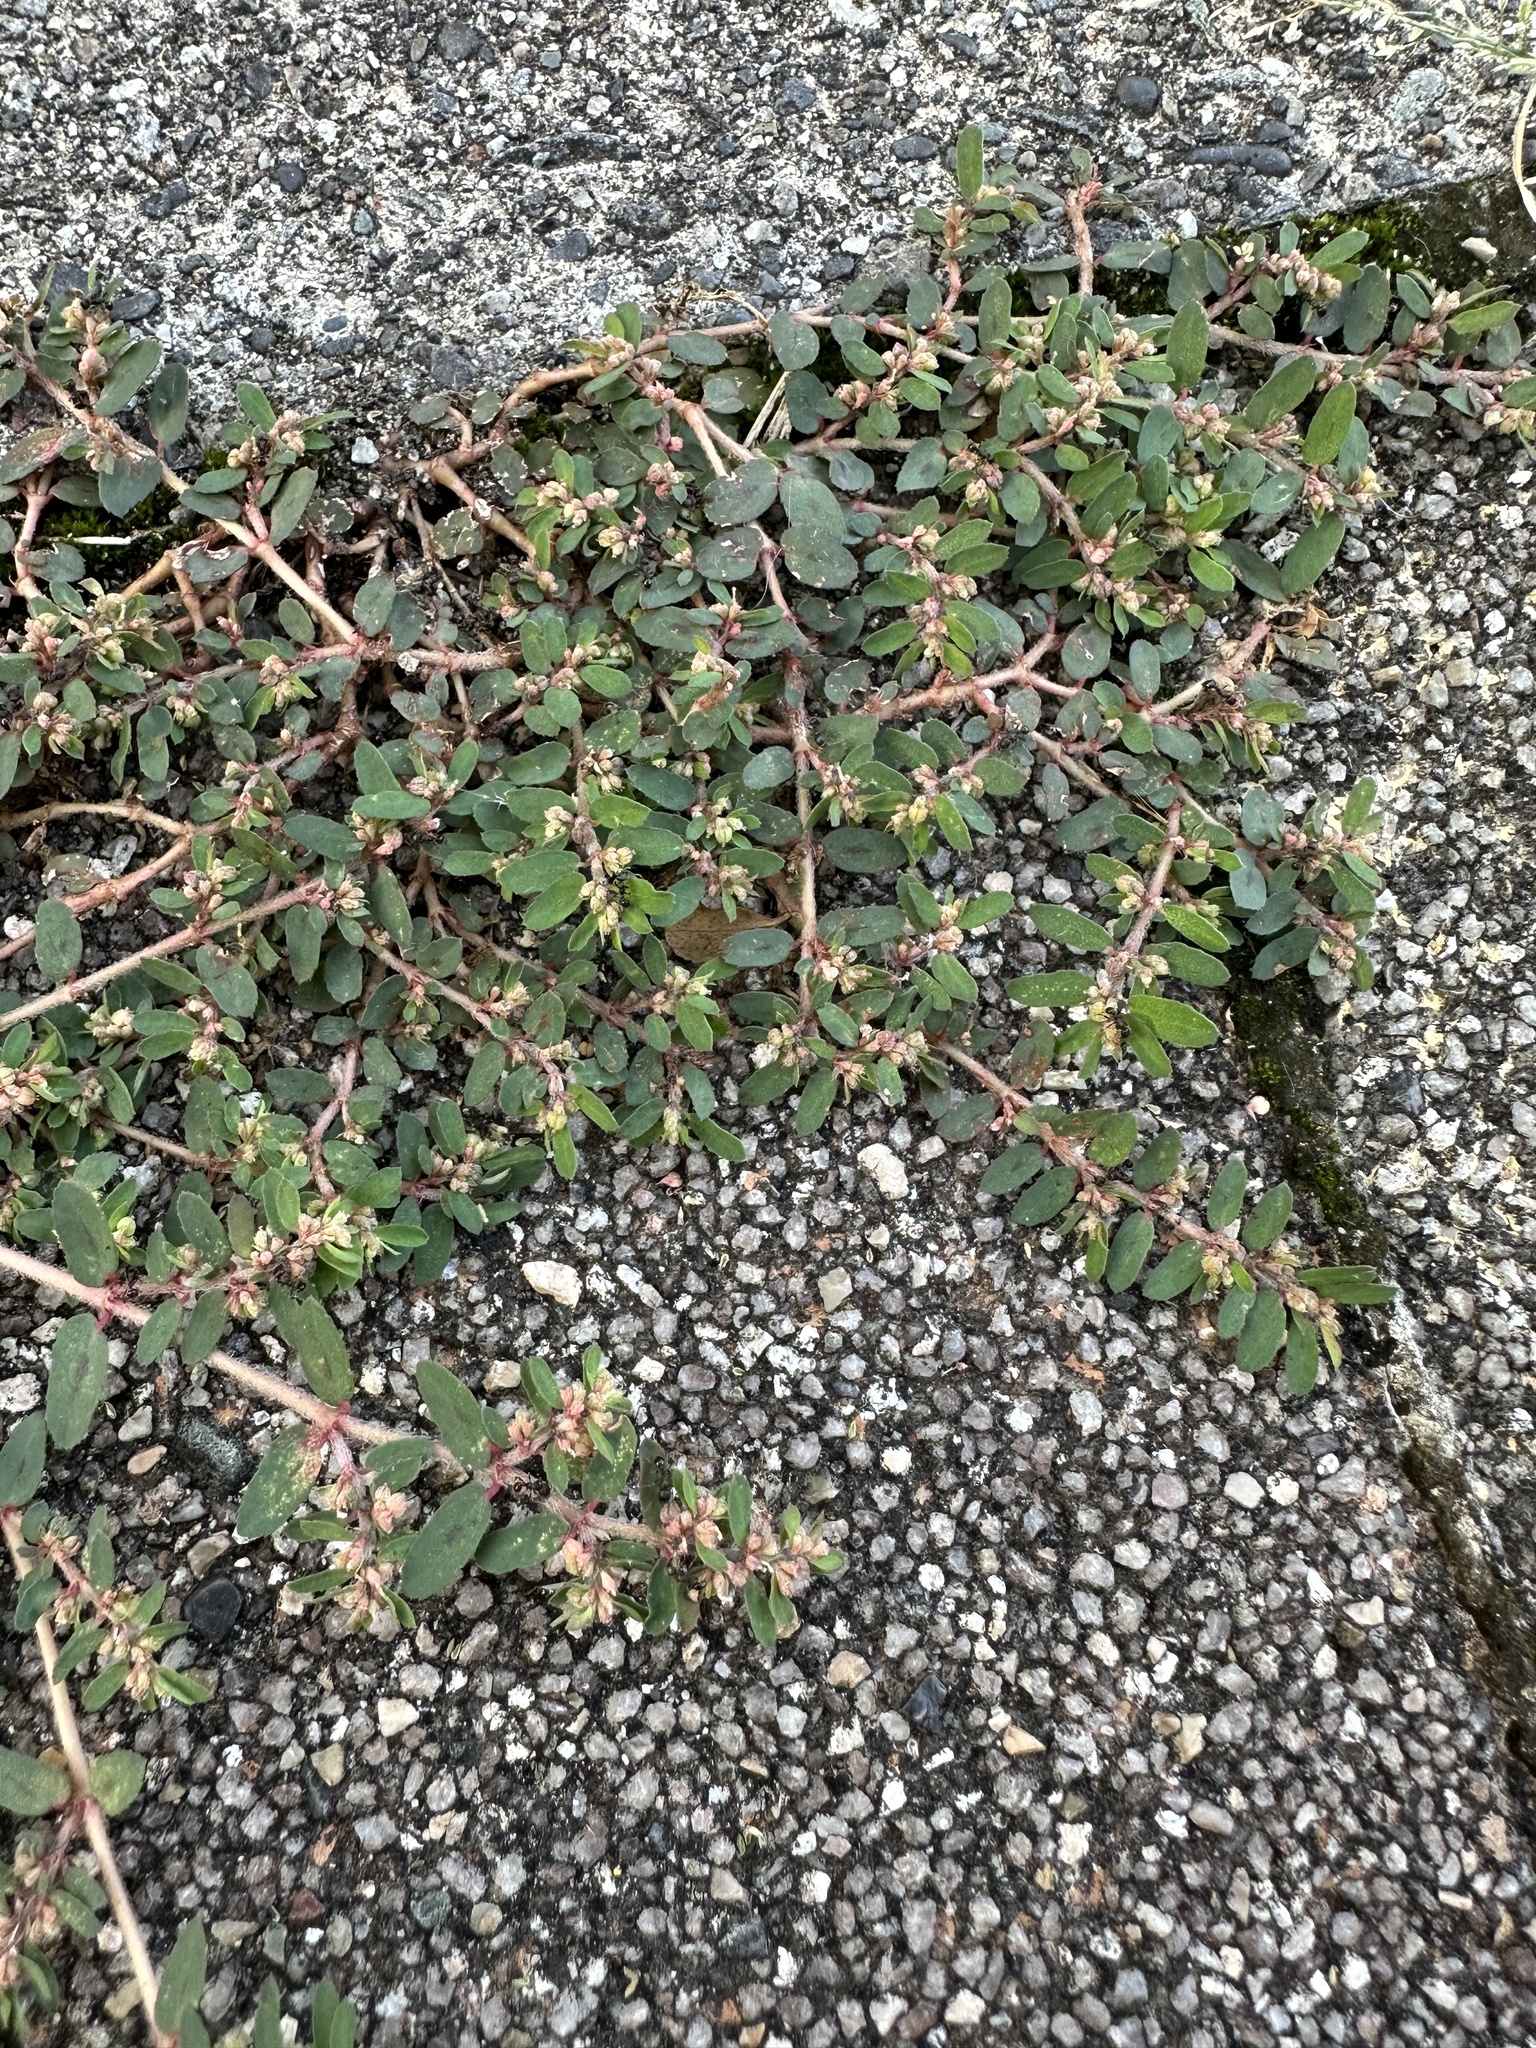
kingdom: Plantae
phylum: Tracheophyta
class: Magnoliopsida
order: Malpighiales
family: Euphorbiaceae
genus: Euphorbia
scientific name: Euphorbia maculata
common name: Spotted spurge
